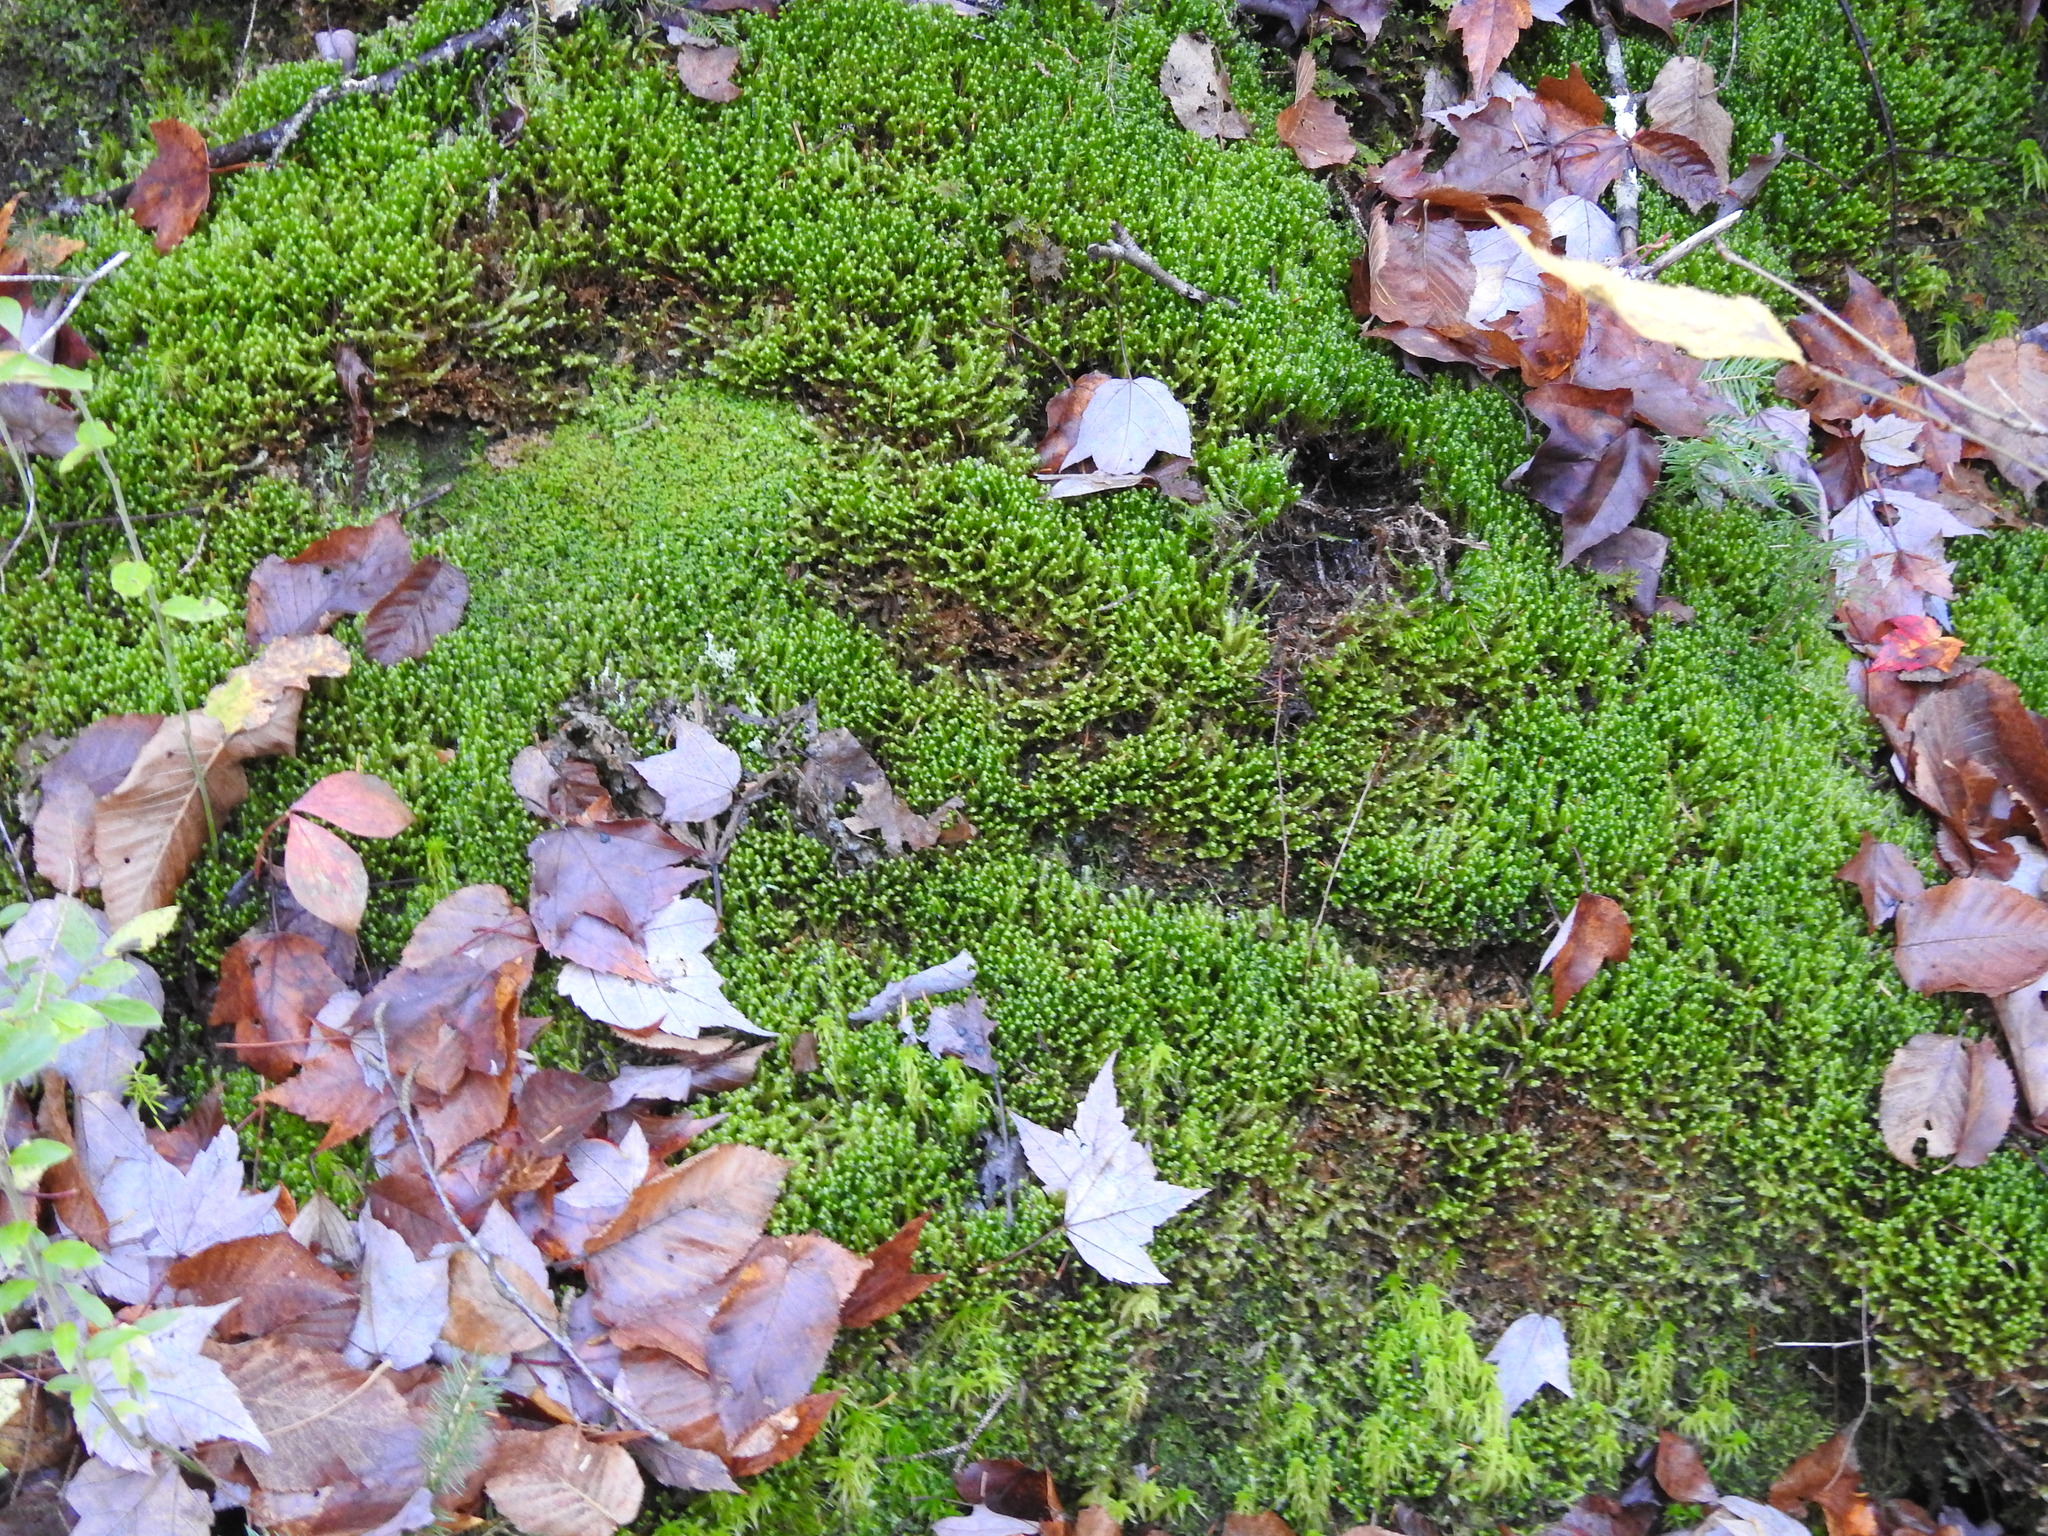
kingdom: Plantae
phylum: Marchantiophyta
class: Jungermanniopsida
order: Jungermanniales
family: Lepidoziaceae
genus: Bazzania
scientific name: Bazzania trilobata
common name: Three-lobed whipwort
